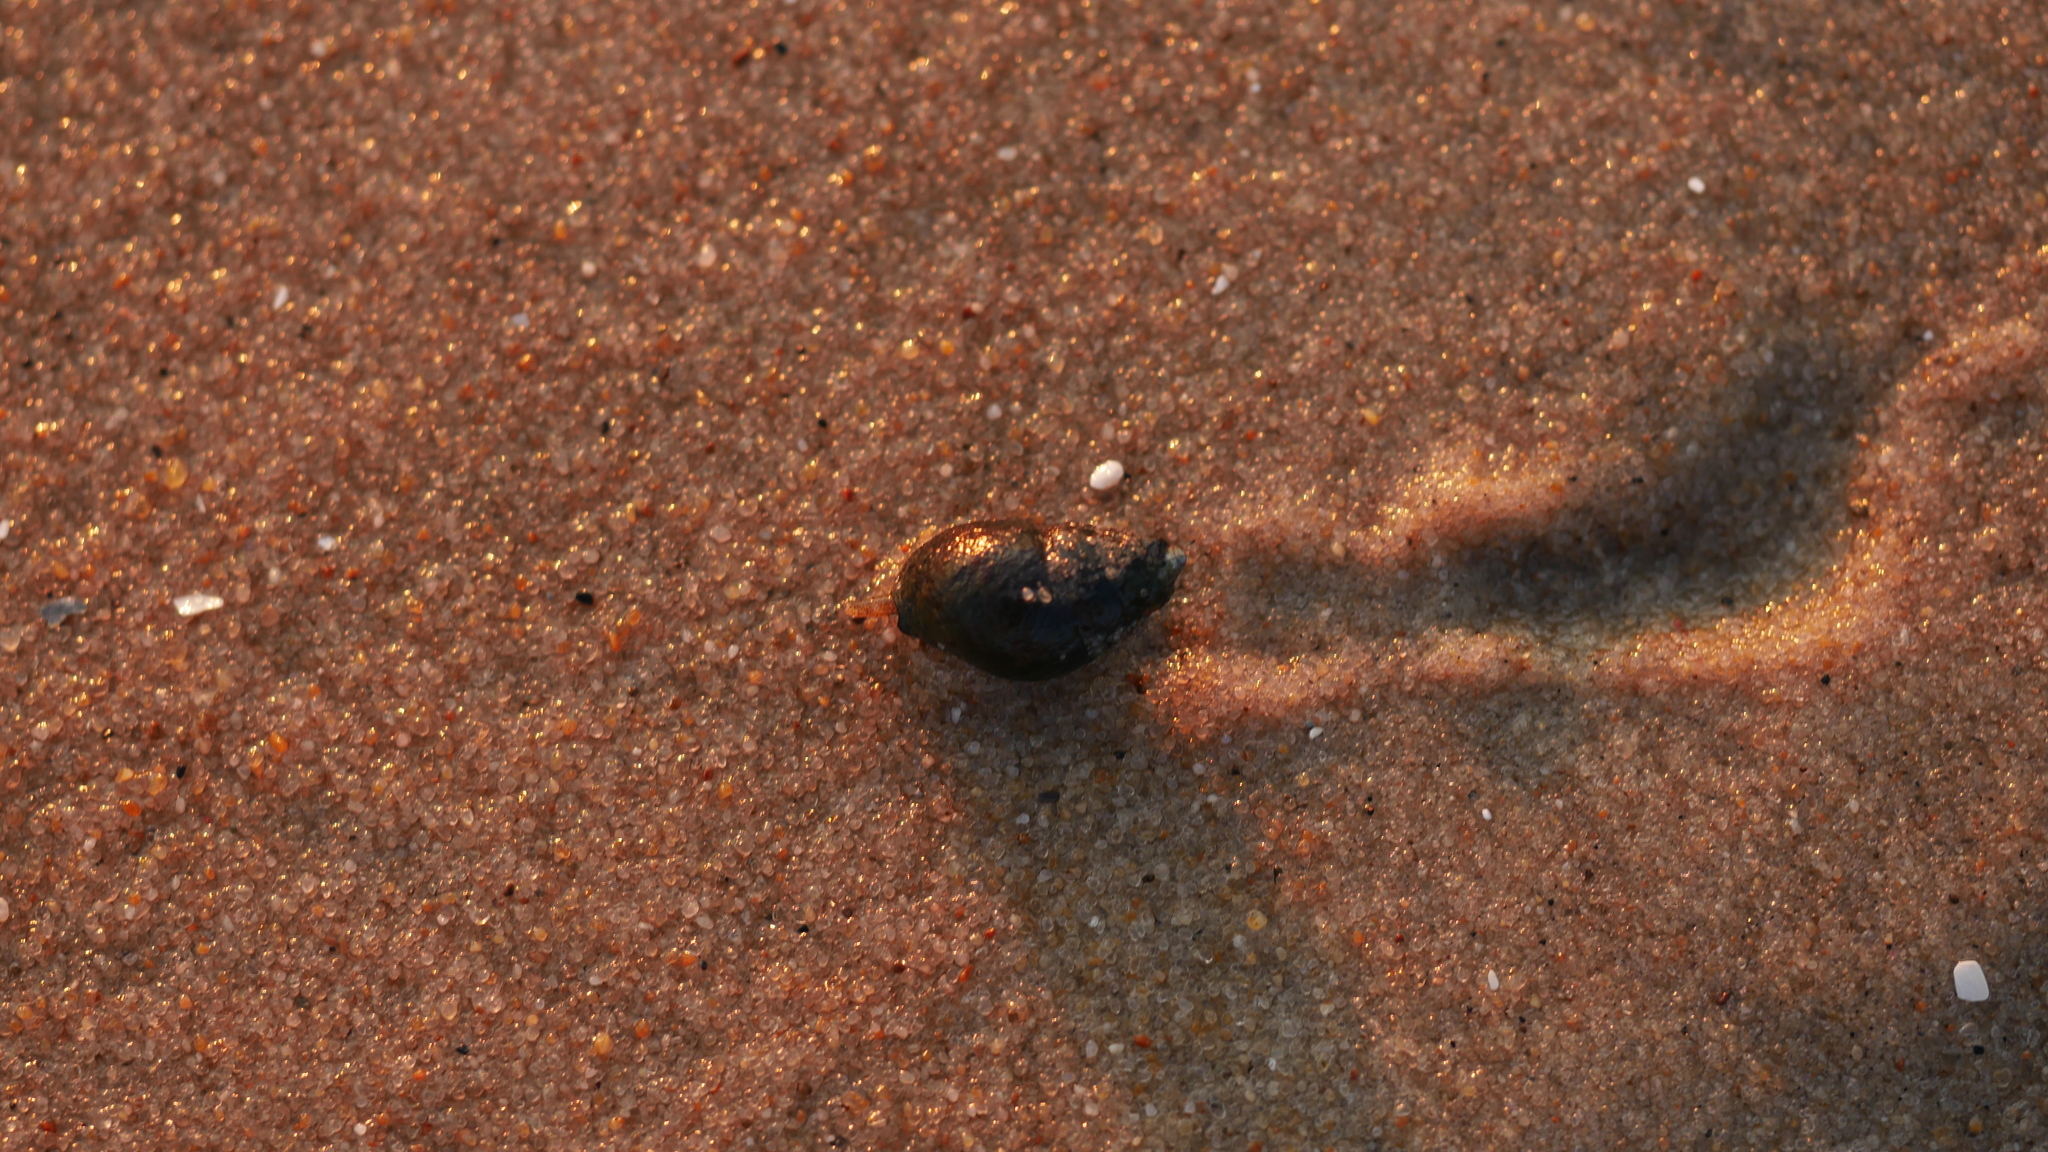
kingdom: Animalia
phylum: Mollusca
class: Gastropoda
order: Neogastropoda
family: Nassariidae
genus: Ilyanassa
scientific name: Ilyanassa obsoleta
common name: Eastern mudsnail
